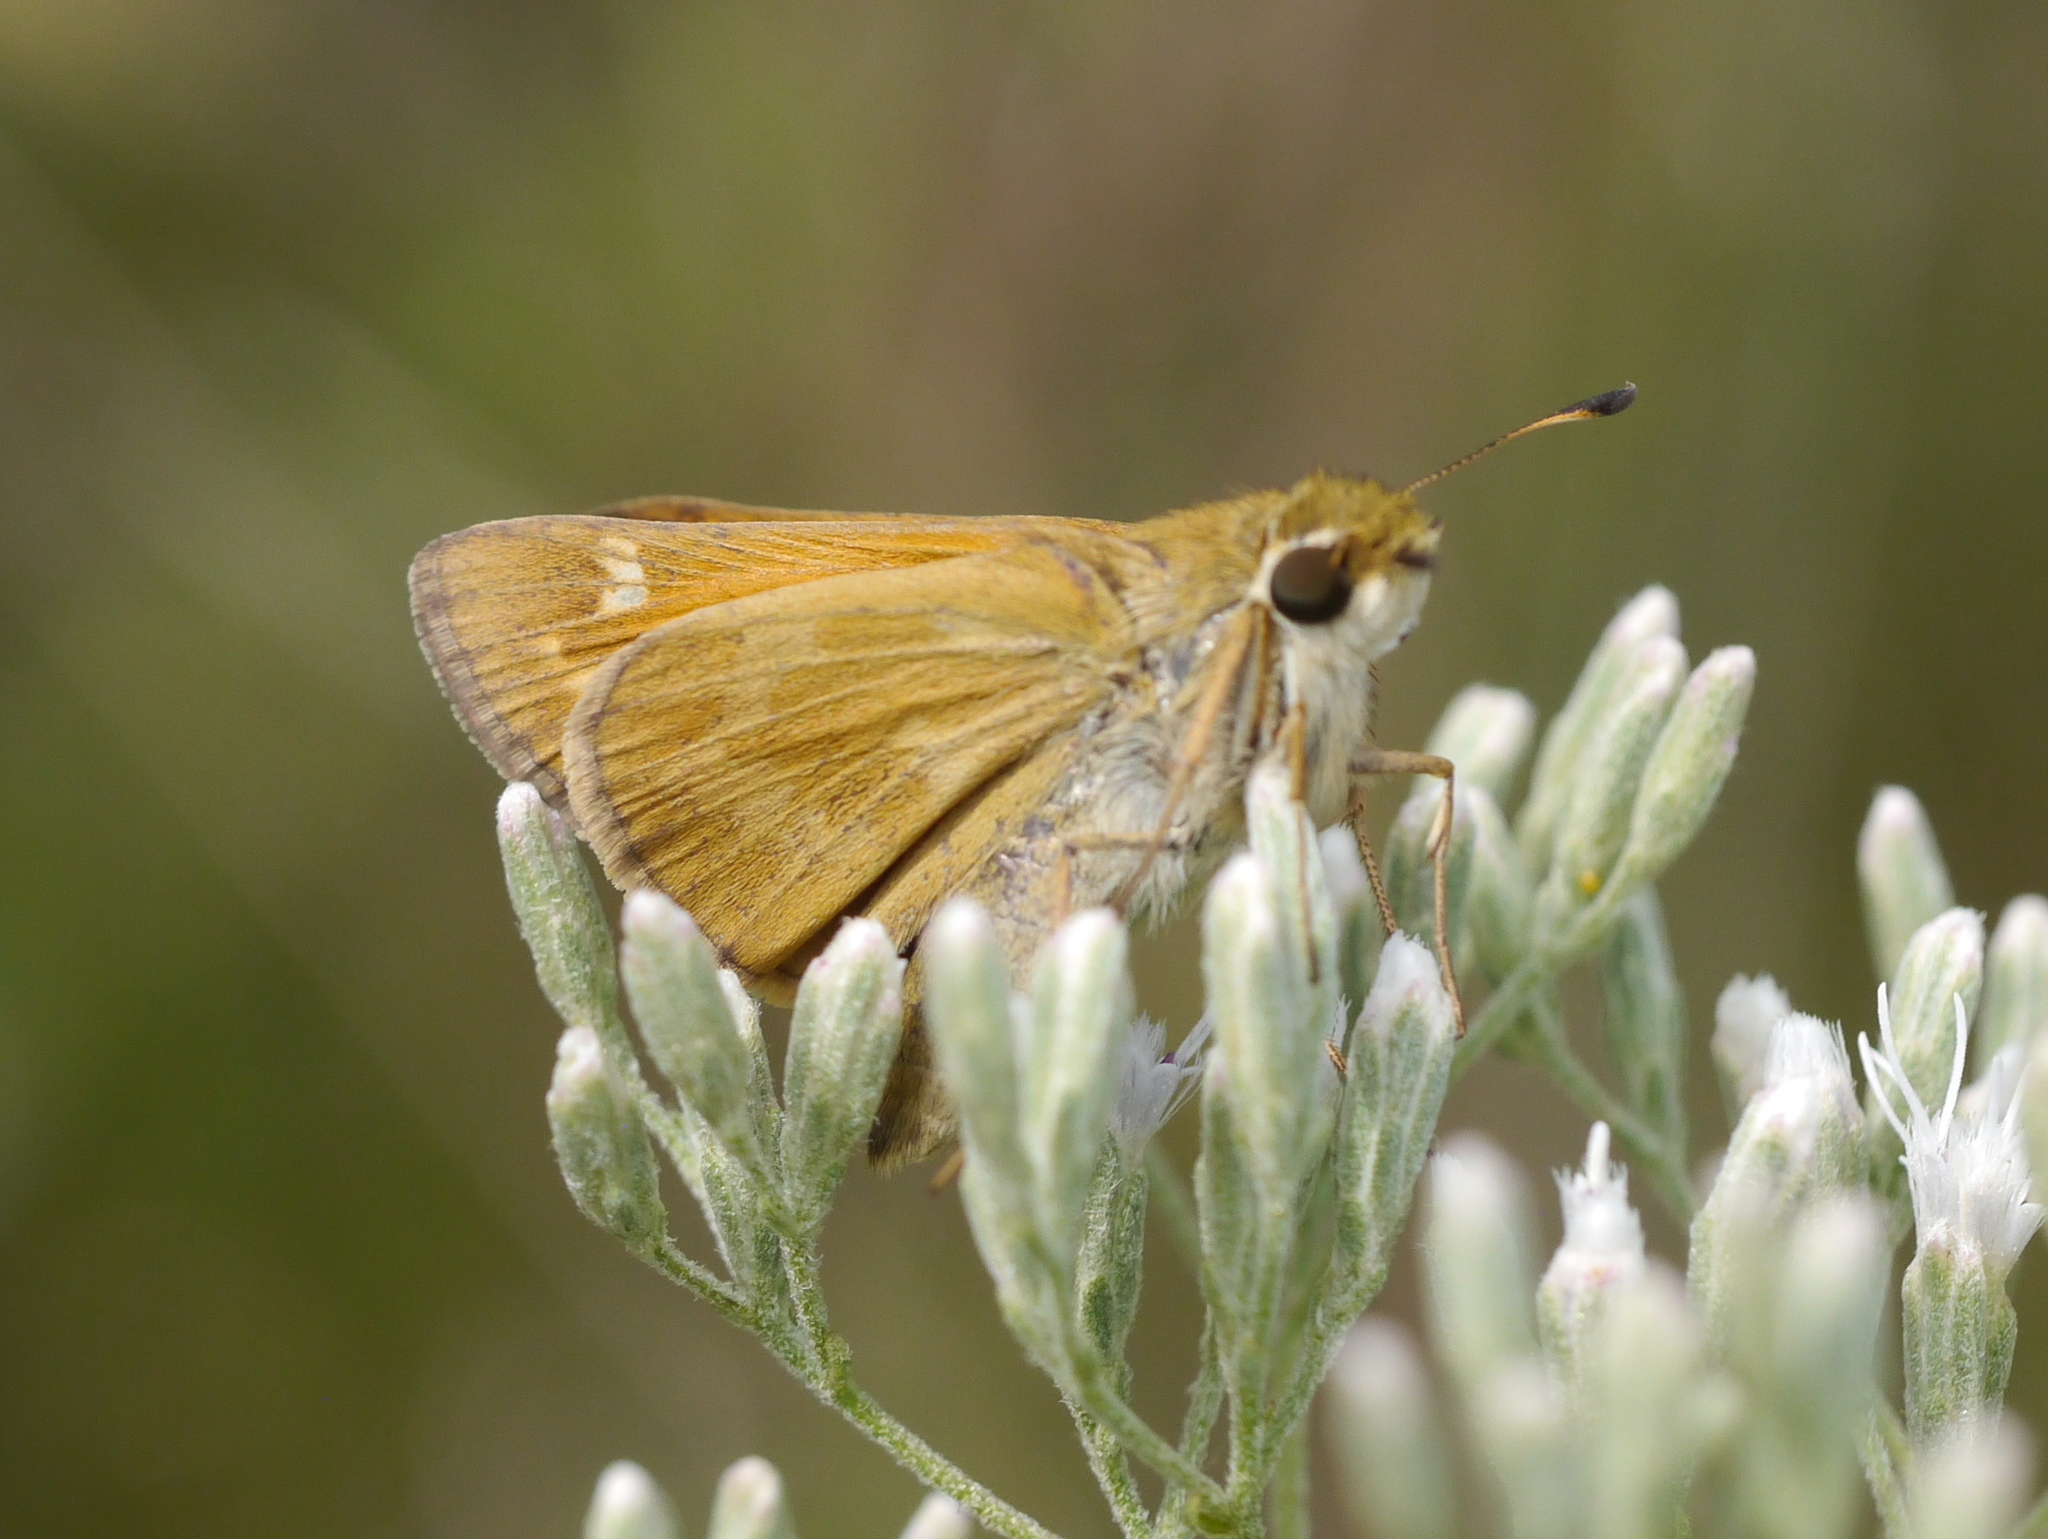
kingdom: Animalia
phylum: Arthropoda
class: Insecta
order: Lepidoptera
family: Hesperiidae
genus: Atalopedes
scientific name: Atalopedes
